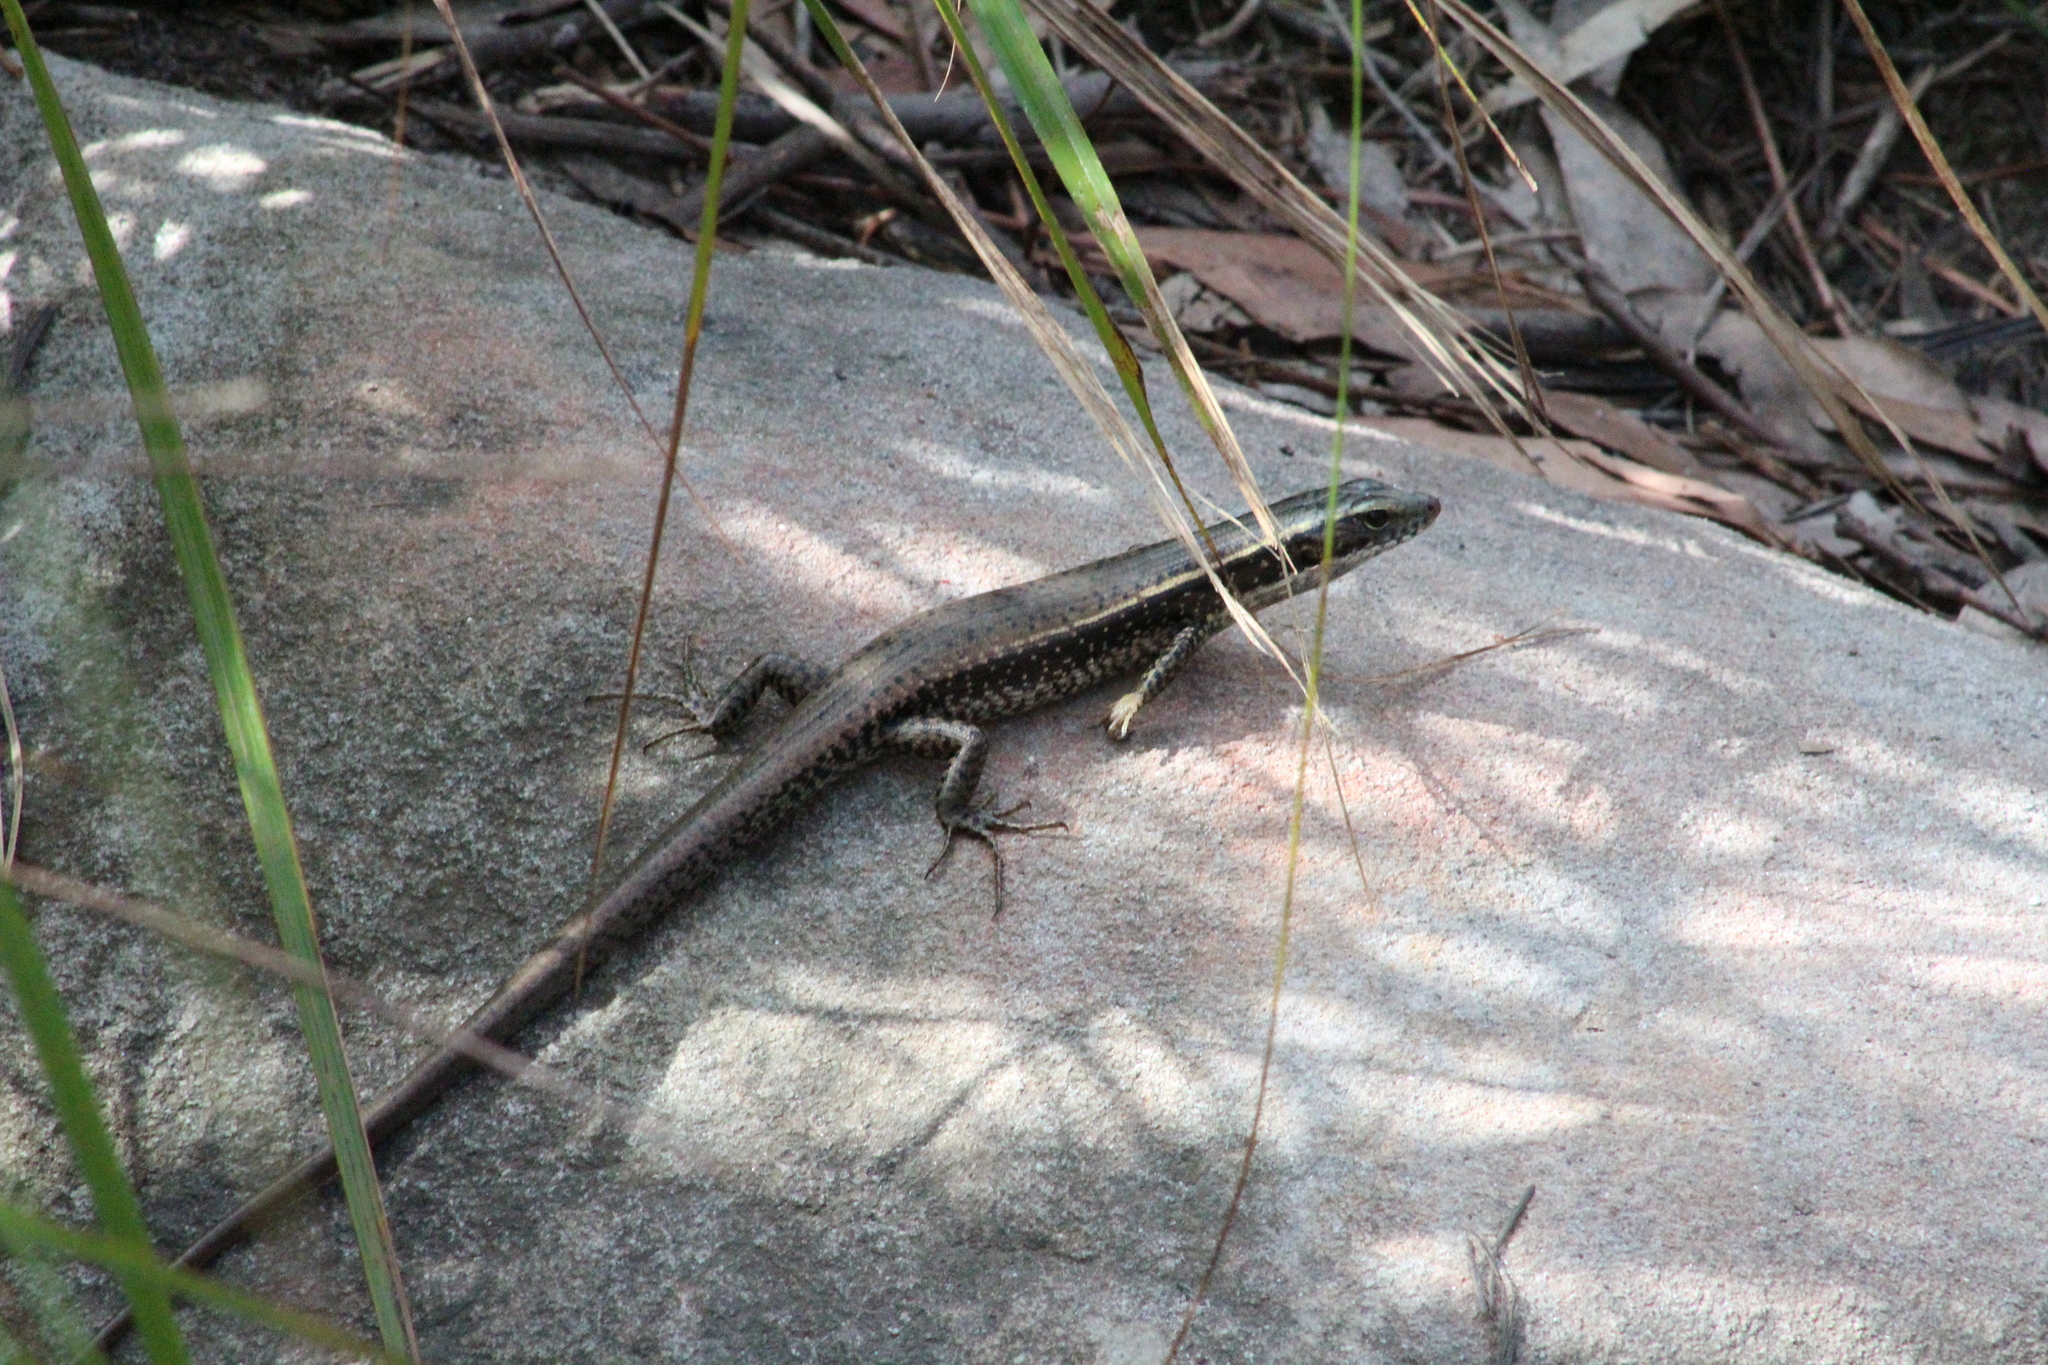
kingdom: Animalia
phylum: Chordata
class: Squamata
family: Scincidae
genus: Eulamprus
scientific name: Eulamprus quoyii
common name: Eastern water skink
